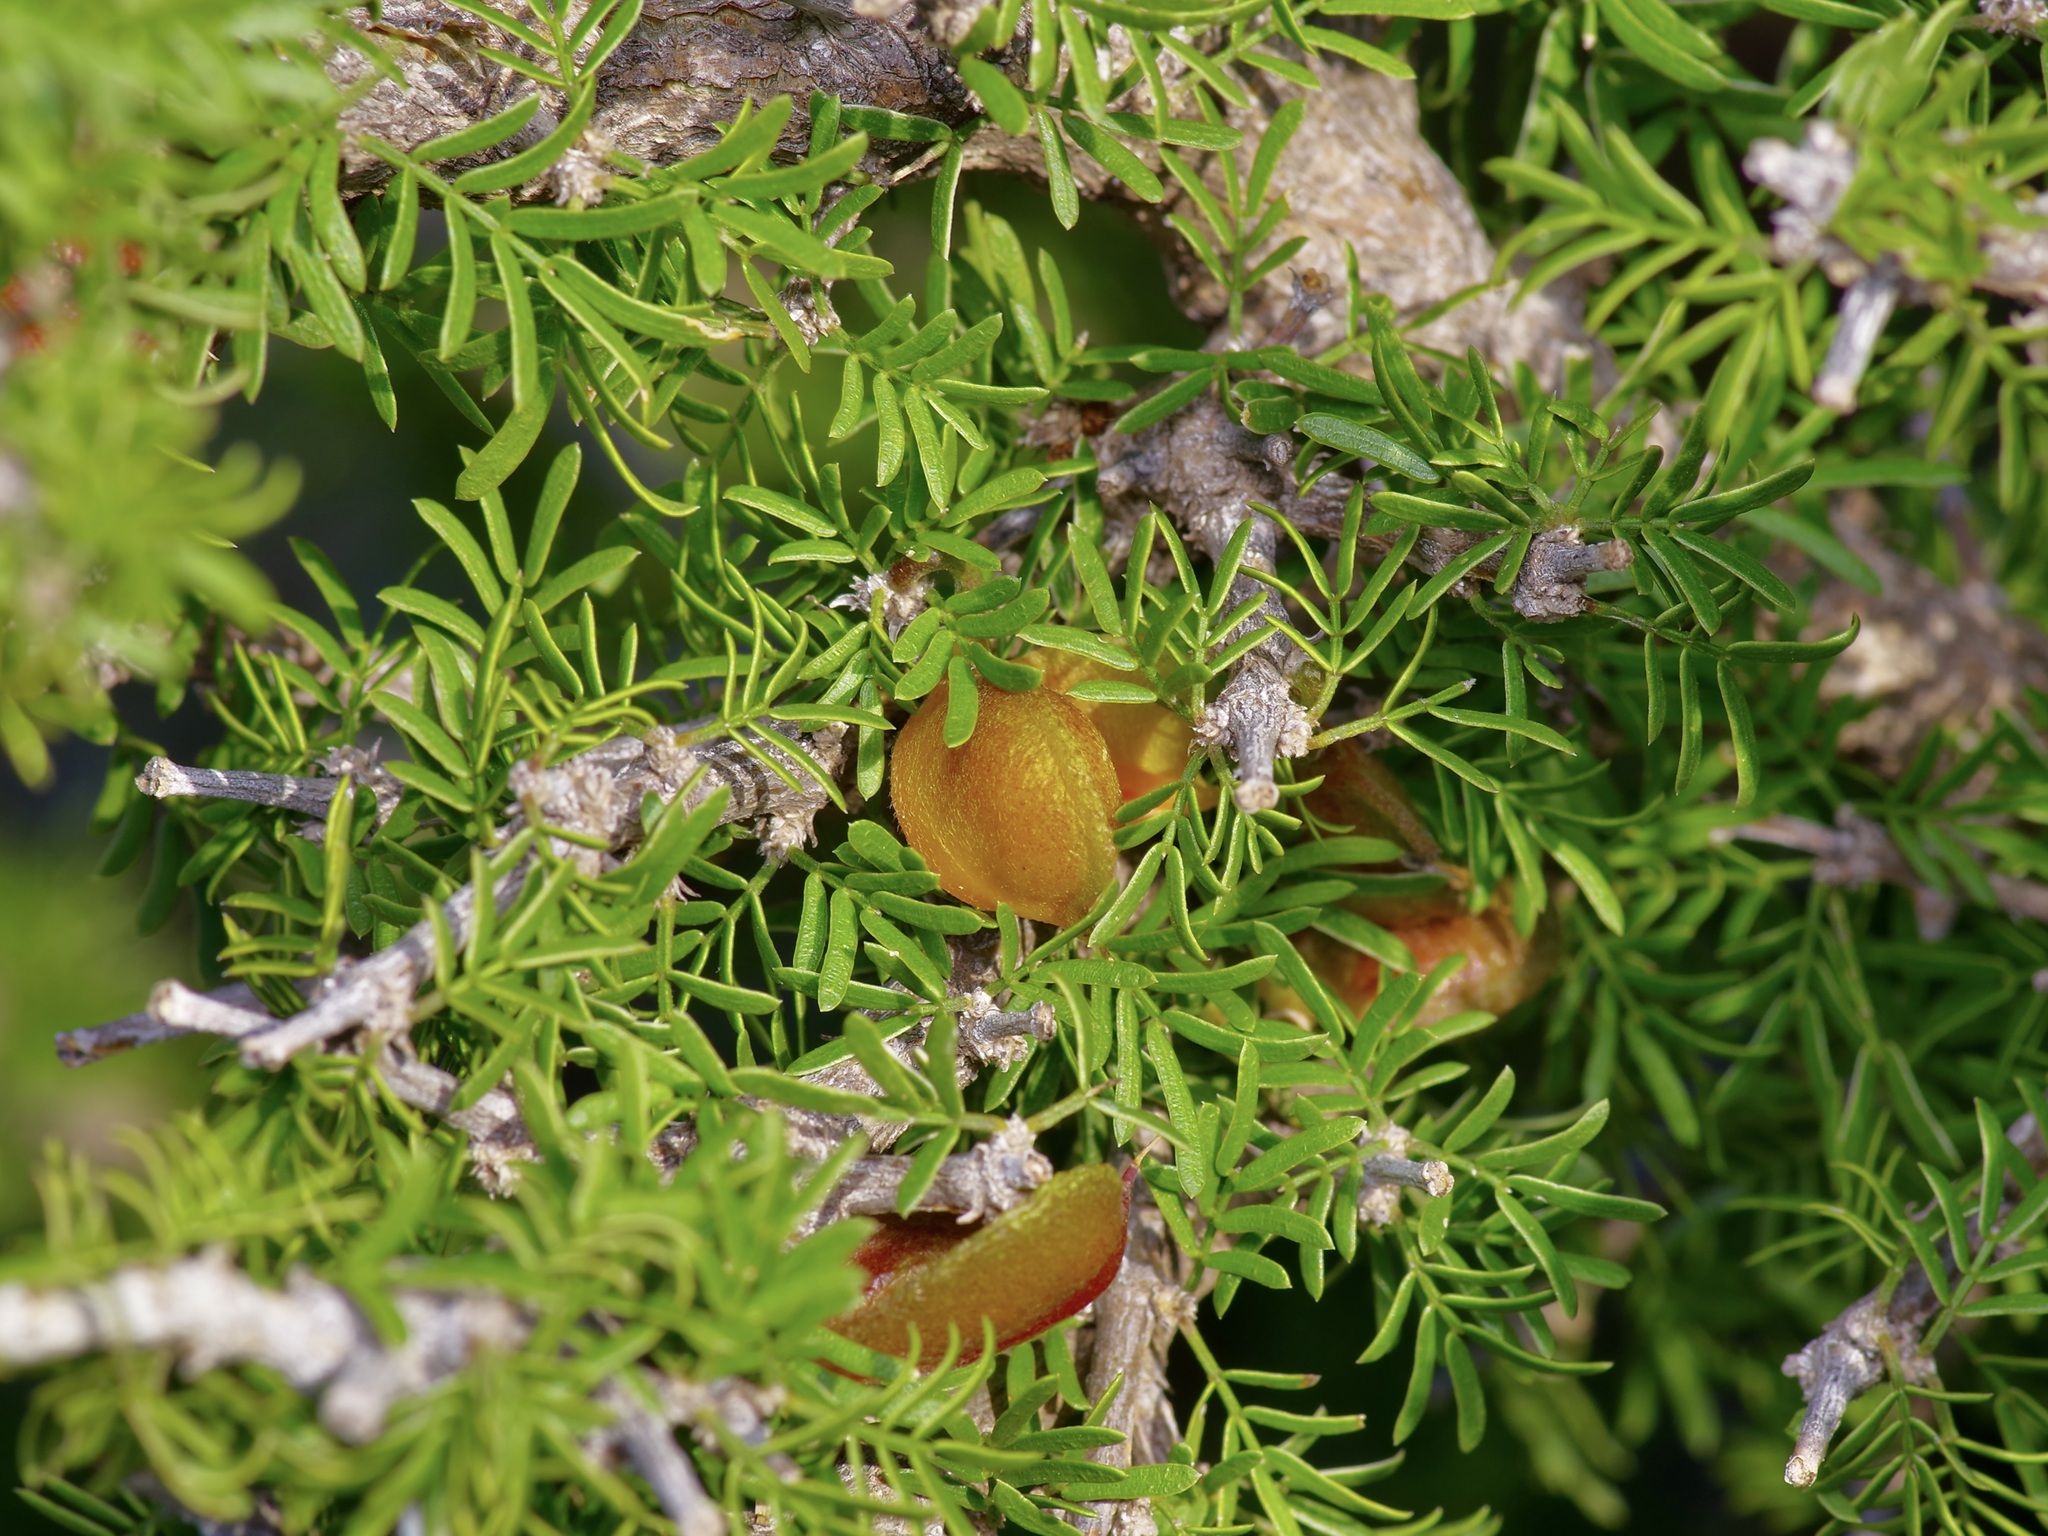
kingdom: Plantae
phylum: Tracheophyta
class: Magnoliopsida
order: Zygophyllales
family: Zygophyllaceae
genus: Porlieria
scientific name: Porlieria angustifolia
